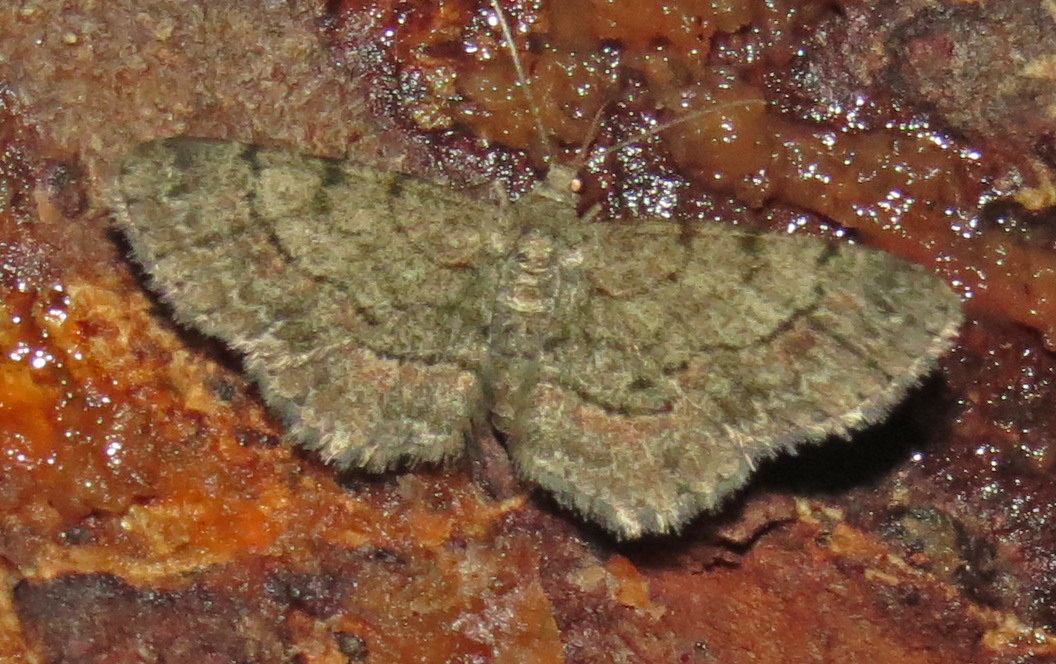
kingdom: Animalia
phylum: Arthropoda
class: Insecta
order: Lepidoptera
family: Geometridae
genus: Glenoides
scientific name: Glenoides texanaria
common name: Texas gray
